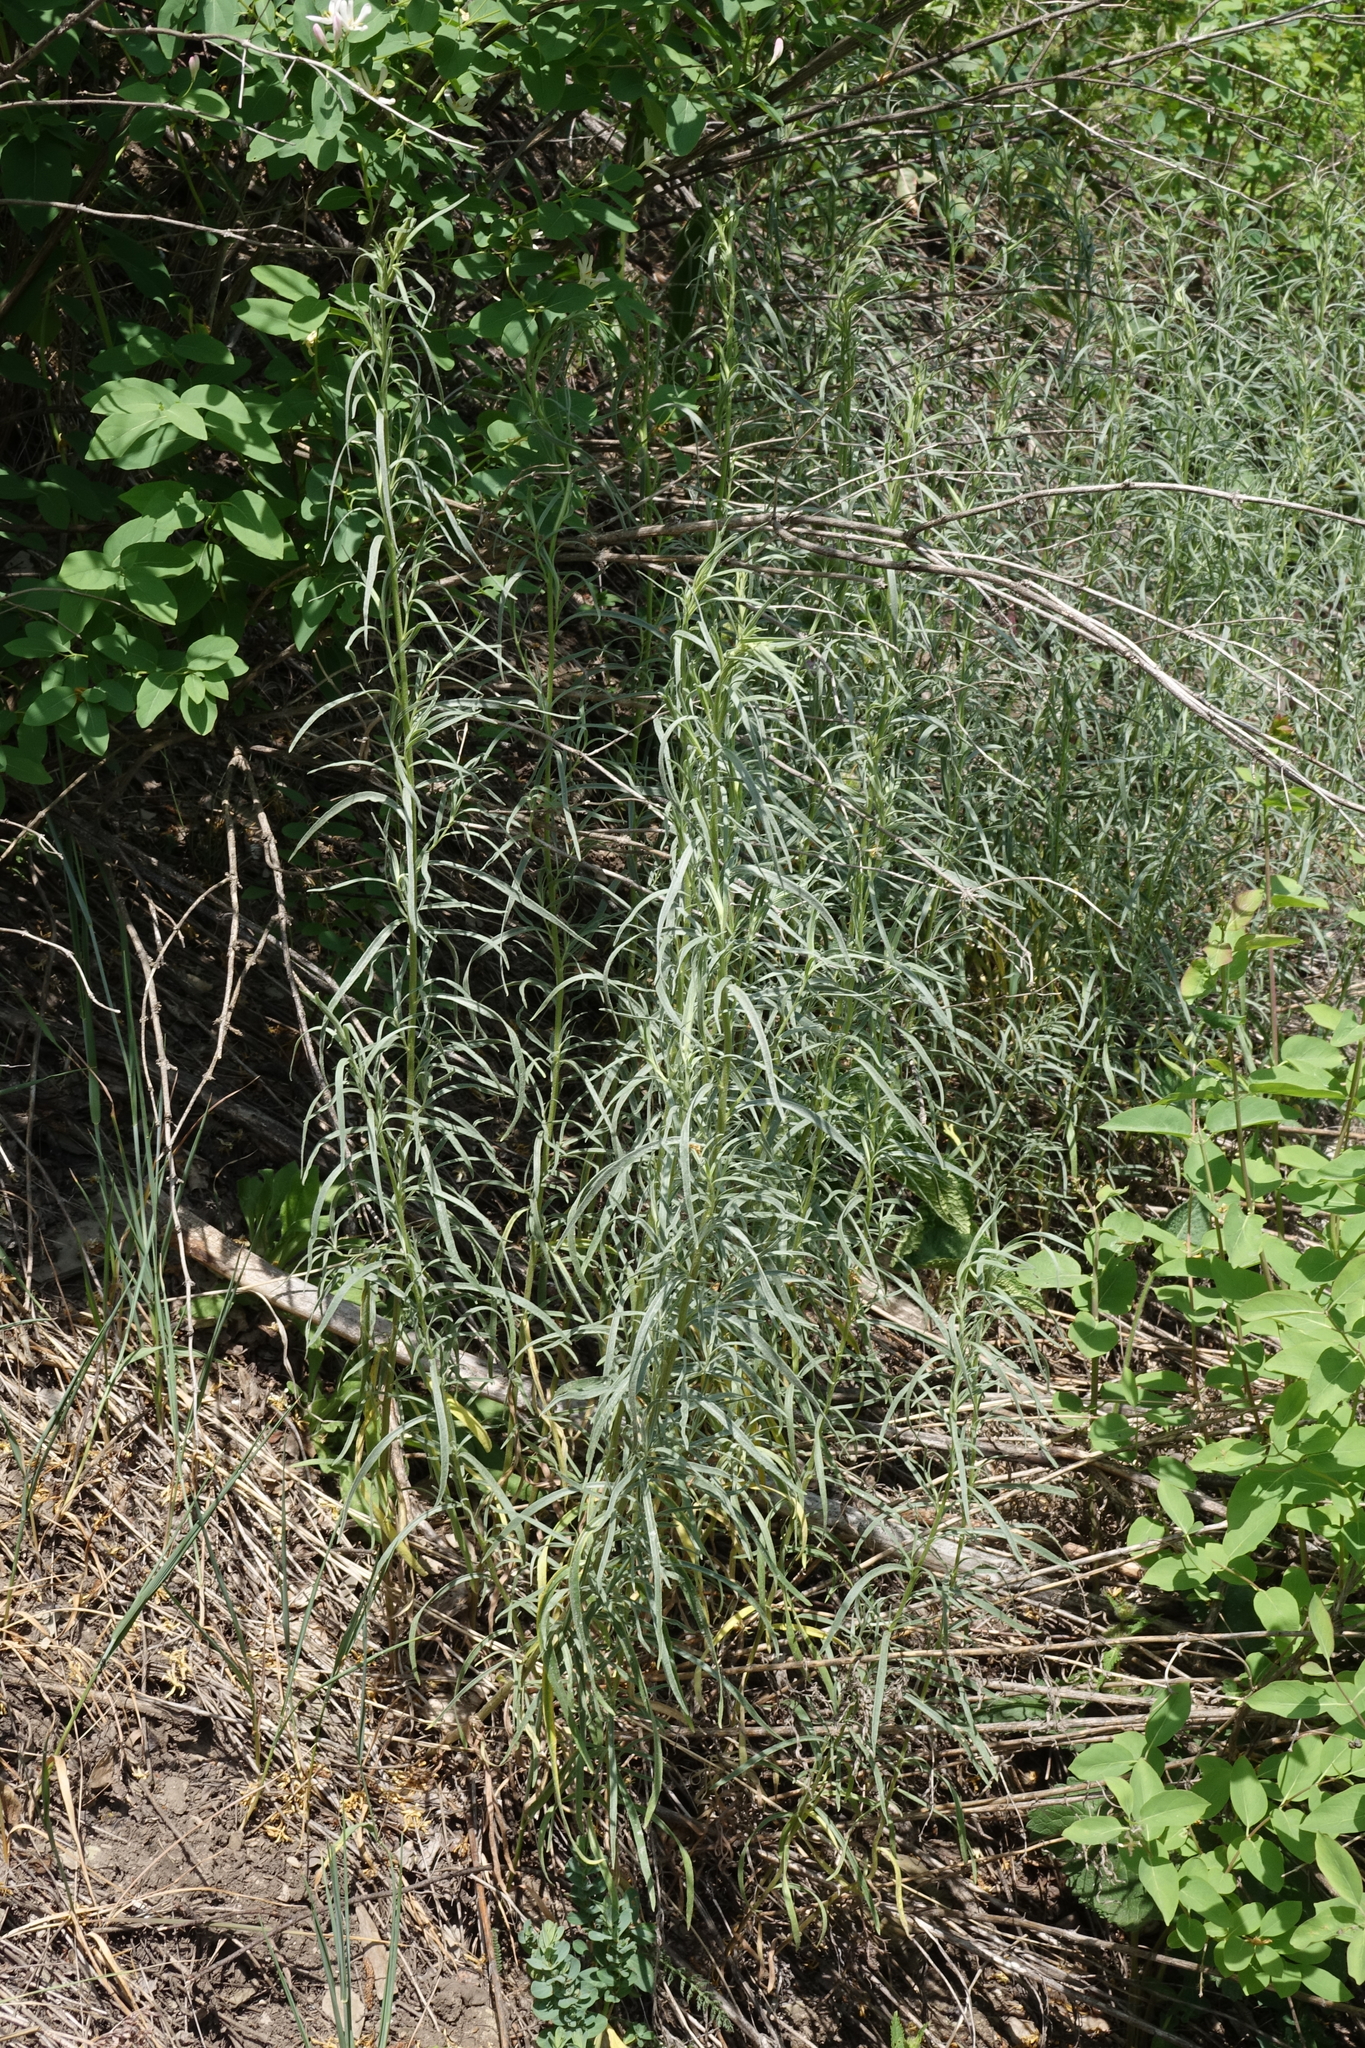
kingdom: Plantae
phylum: Tracheophyta
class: Magnoliopsida
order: Asterales
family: Asteraceae
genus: Artemisia
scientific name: Artemisia glauca
